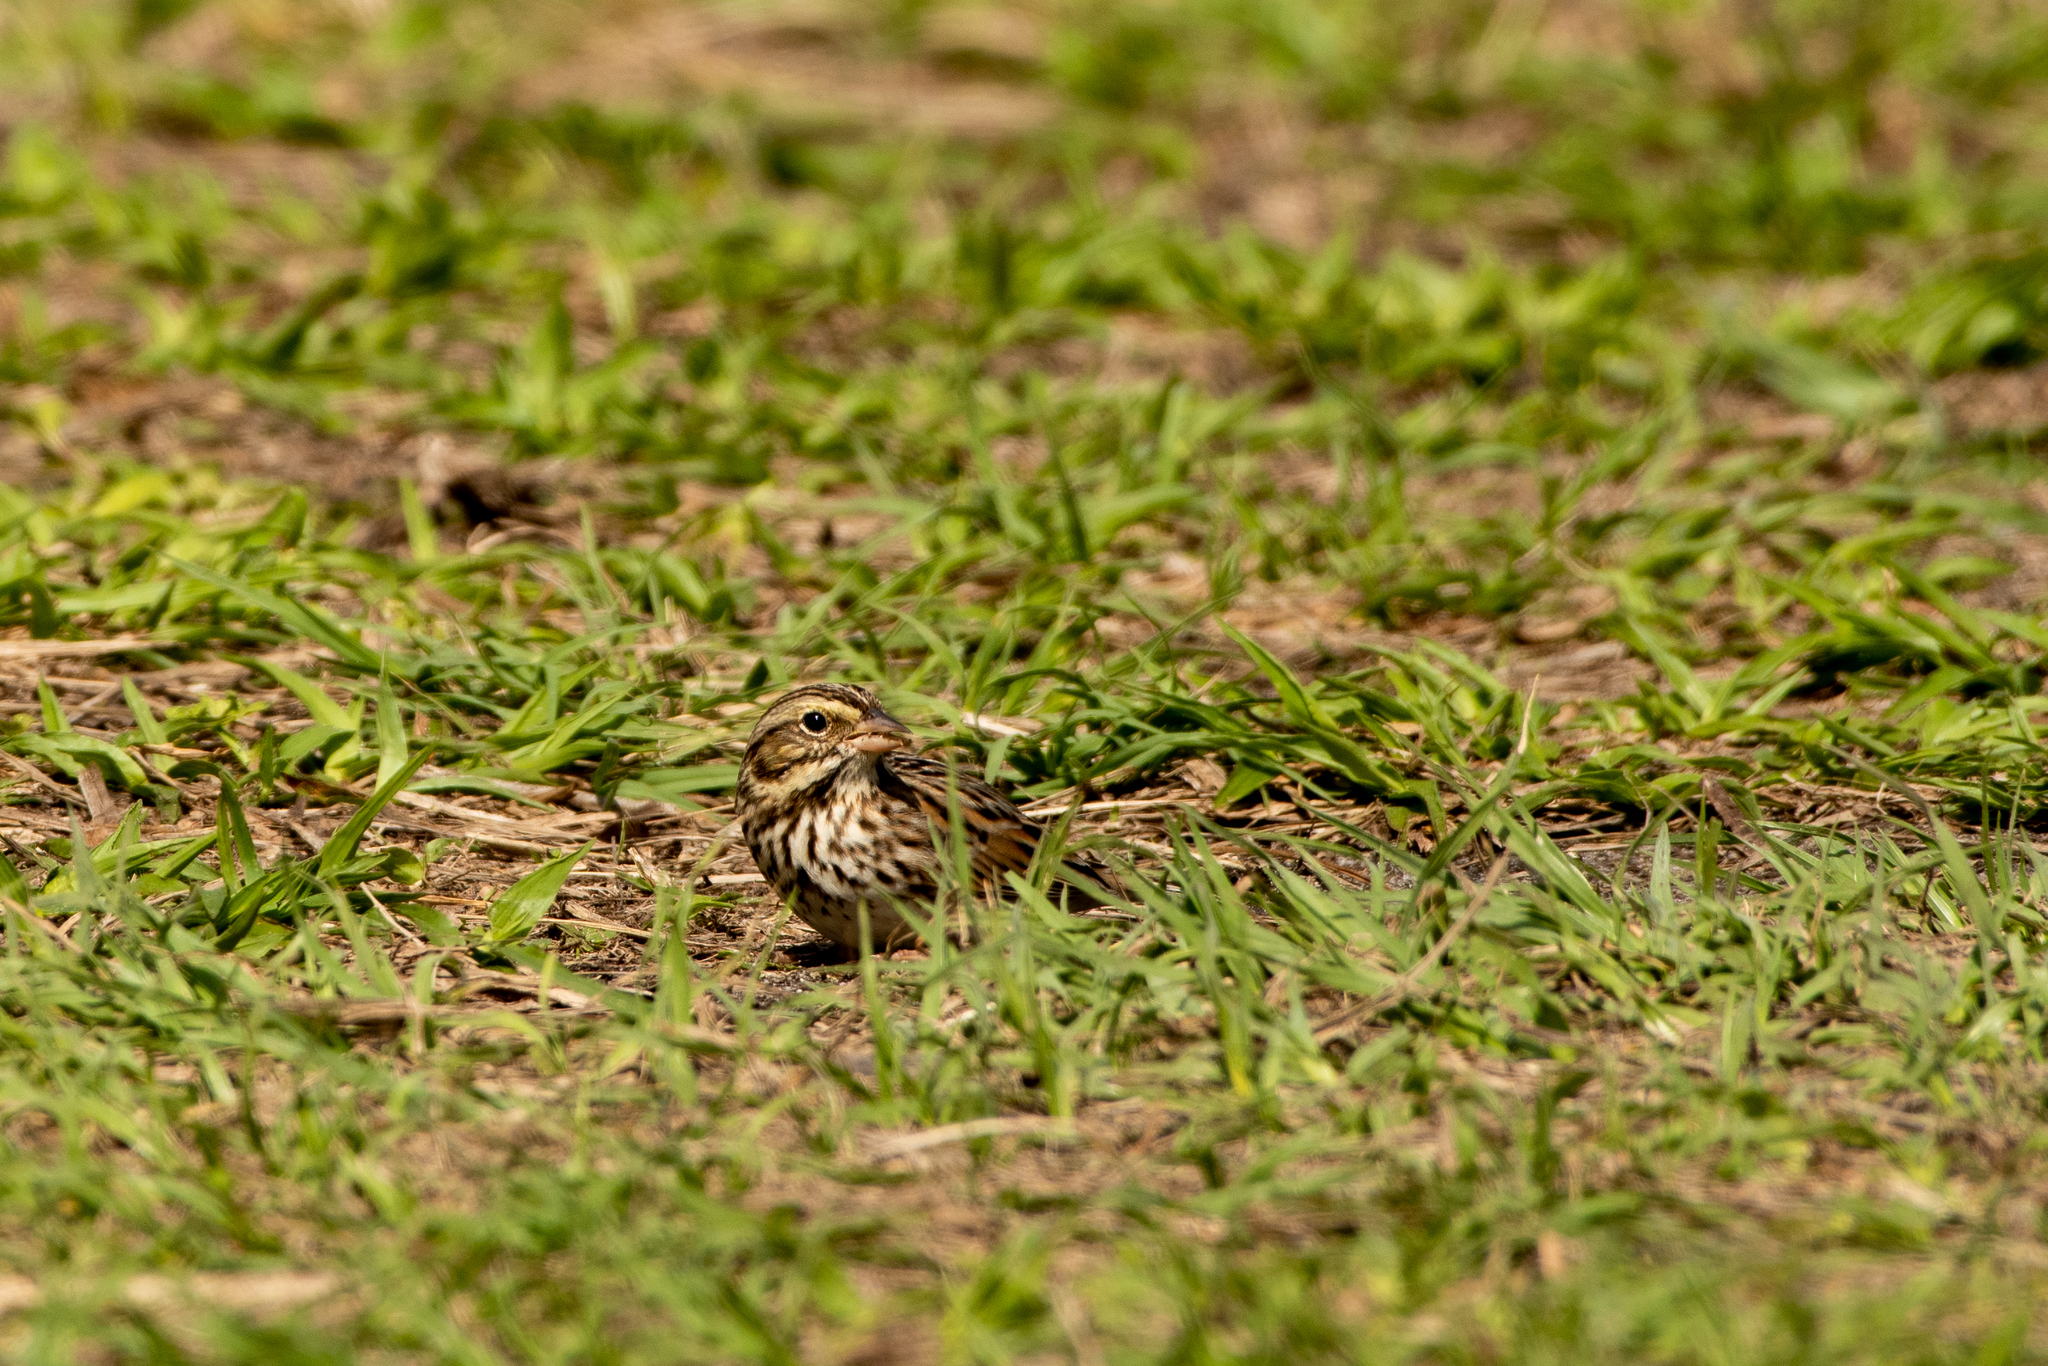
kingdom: Animalia
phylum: Chordata
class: Aves
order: Passeriformes
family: Passerellidae
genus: Passerculus
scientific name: Passerculus sandwichensis
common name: Savannah sparrow
